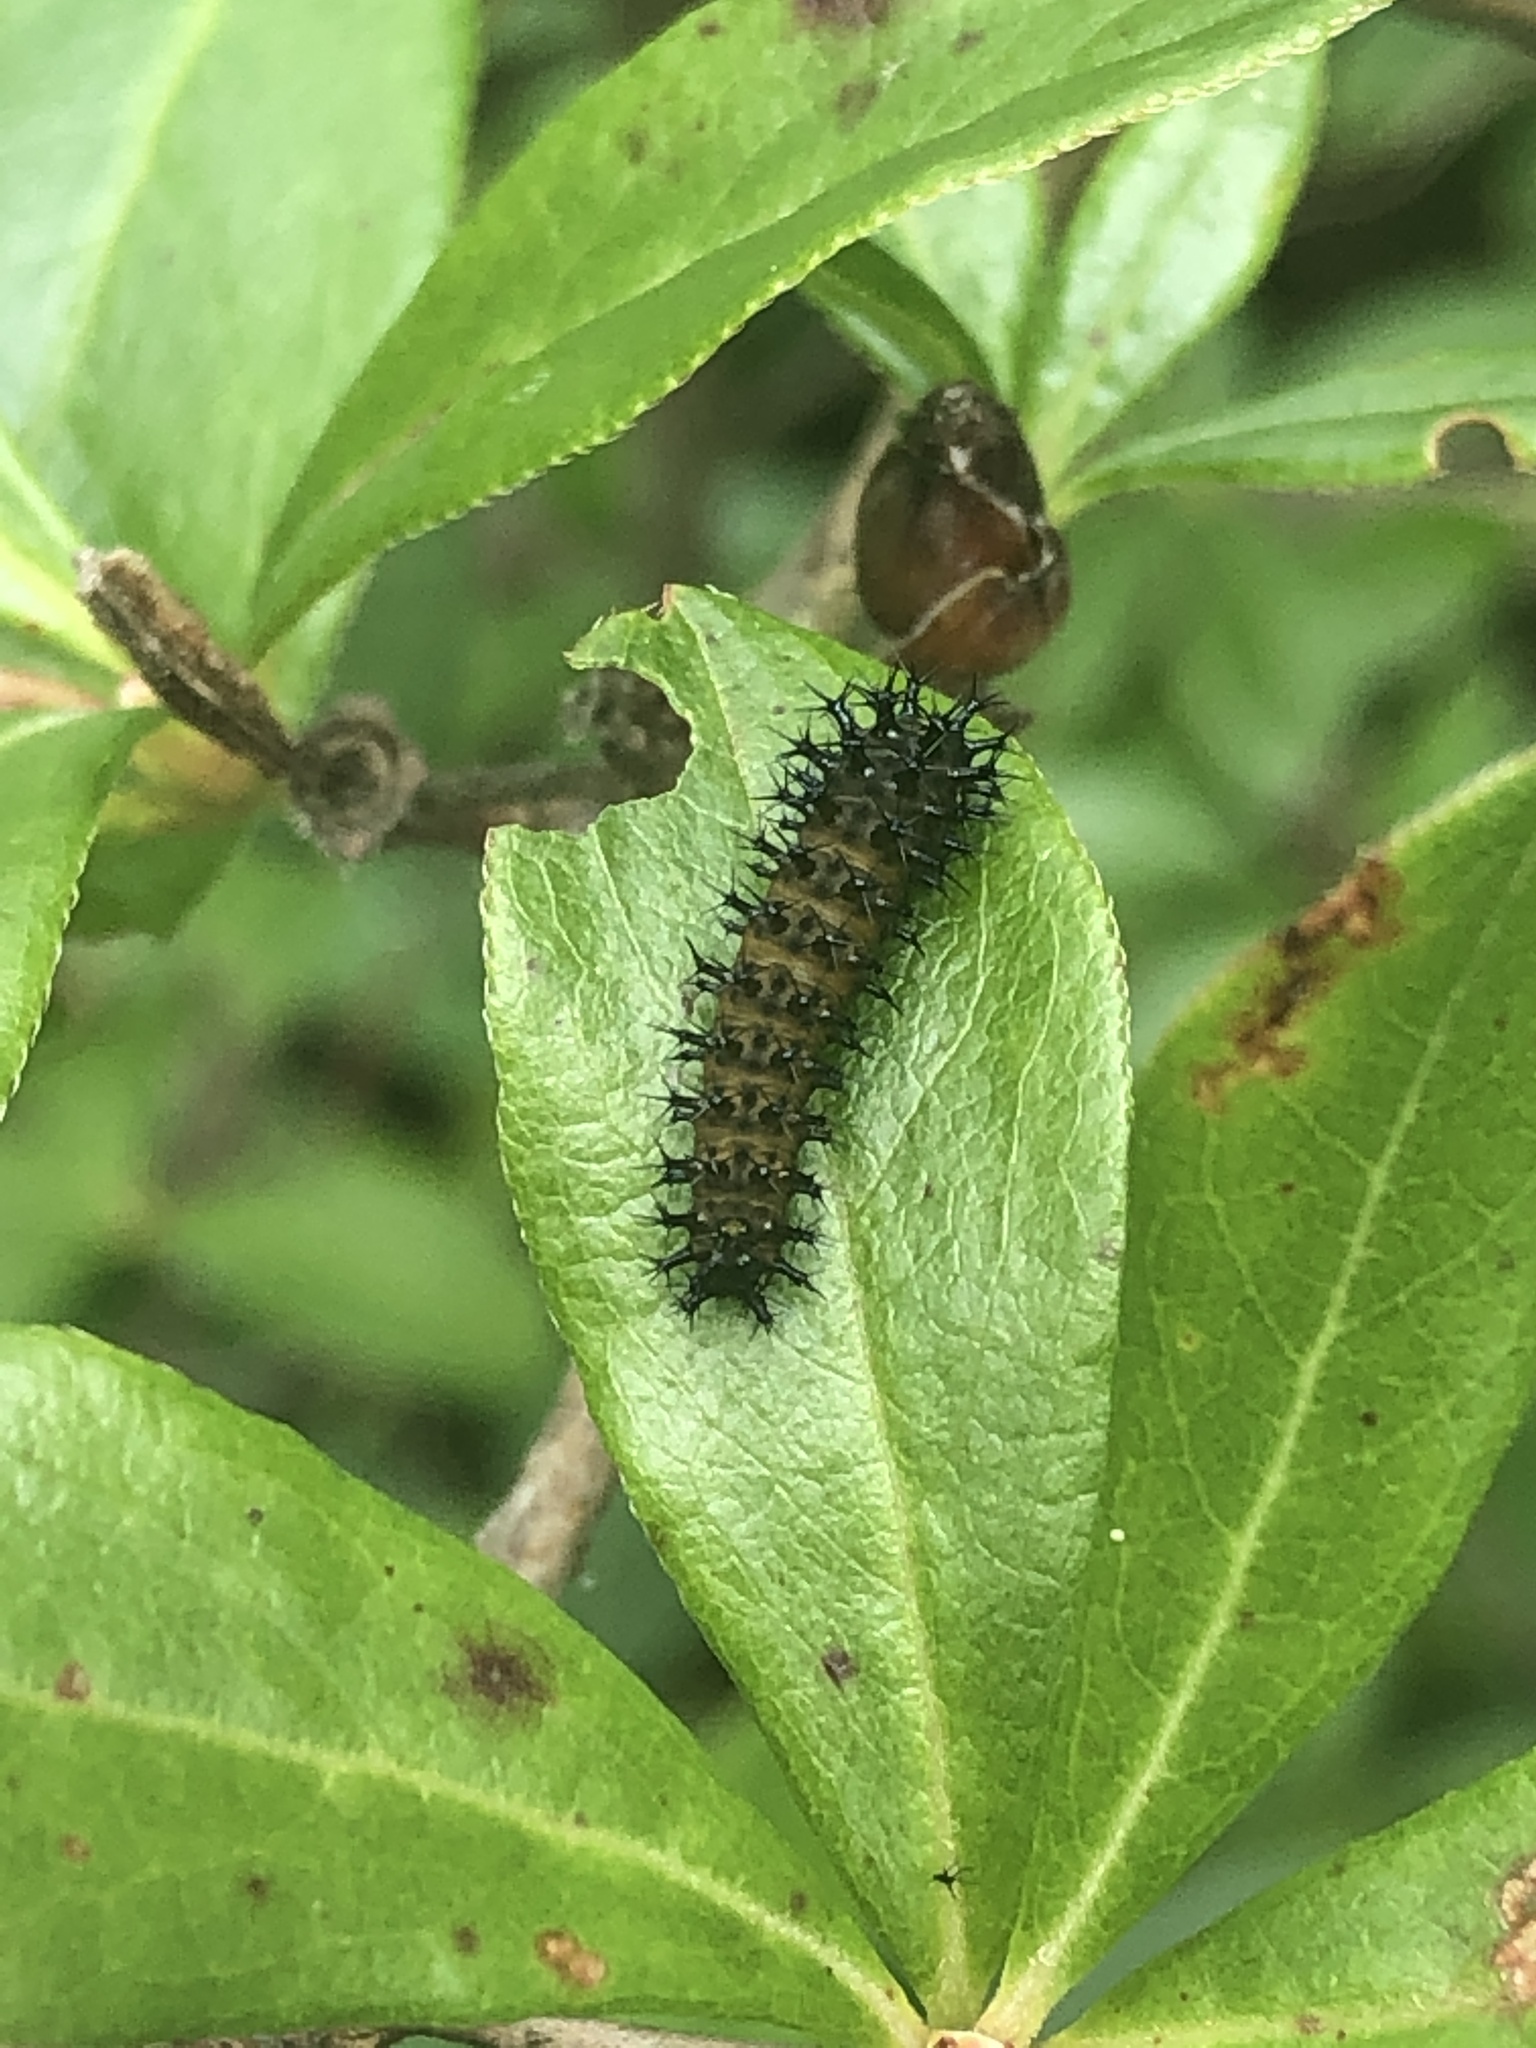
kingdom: Animalia
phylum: Arthropoda
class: Insecta
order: Lepidoptera
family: Saturniidae
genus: Hyalophora
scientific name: Hyalophora cecropia
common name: Cecropia silkmoth
